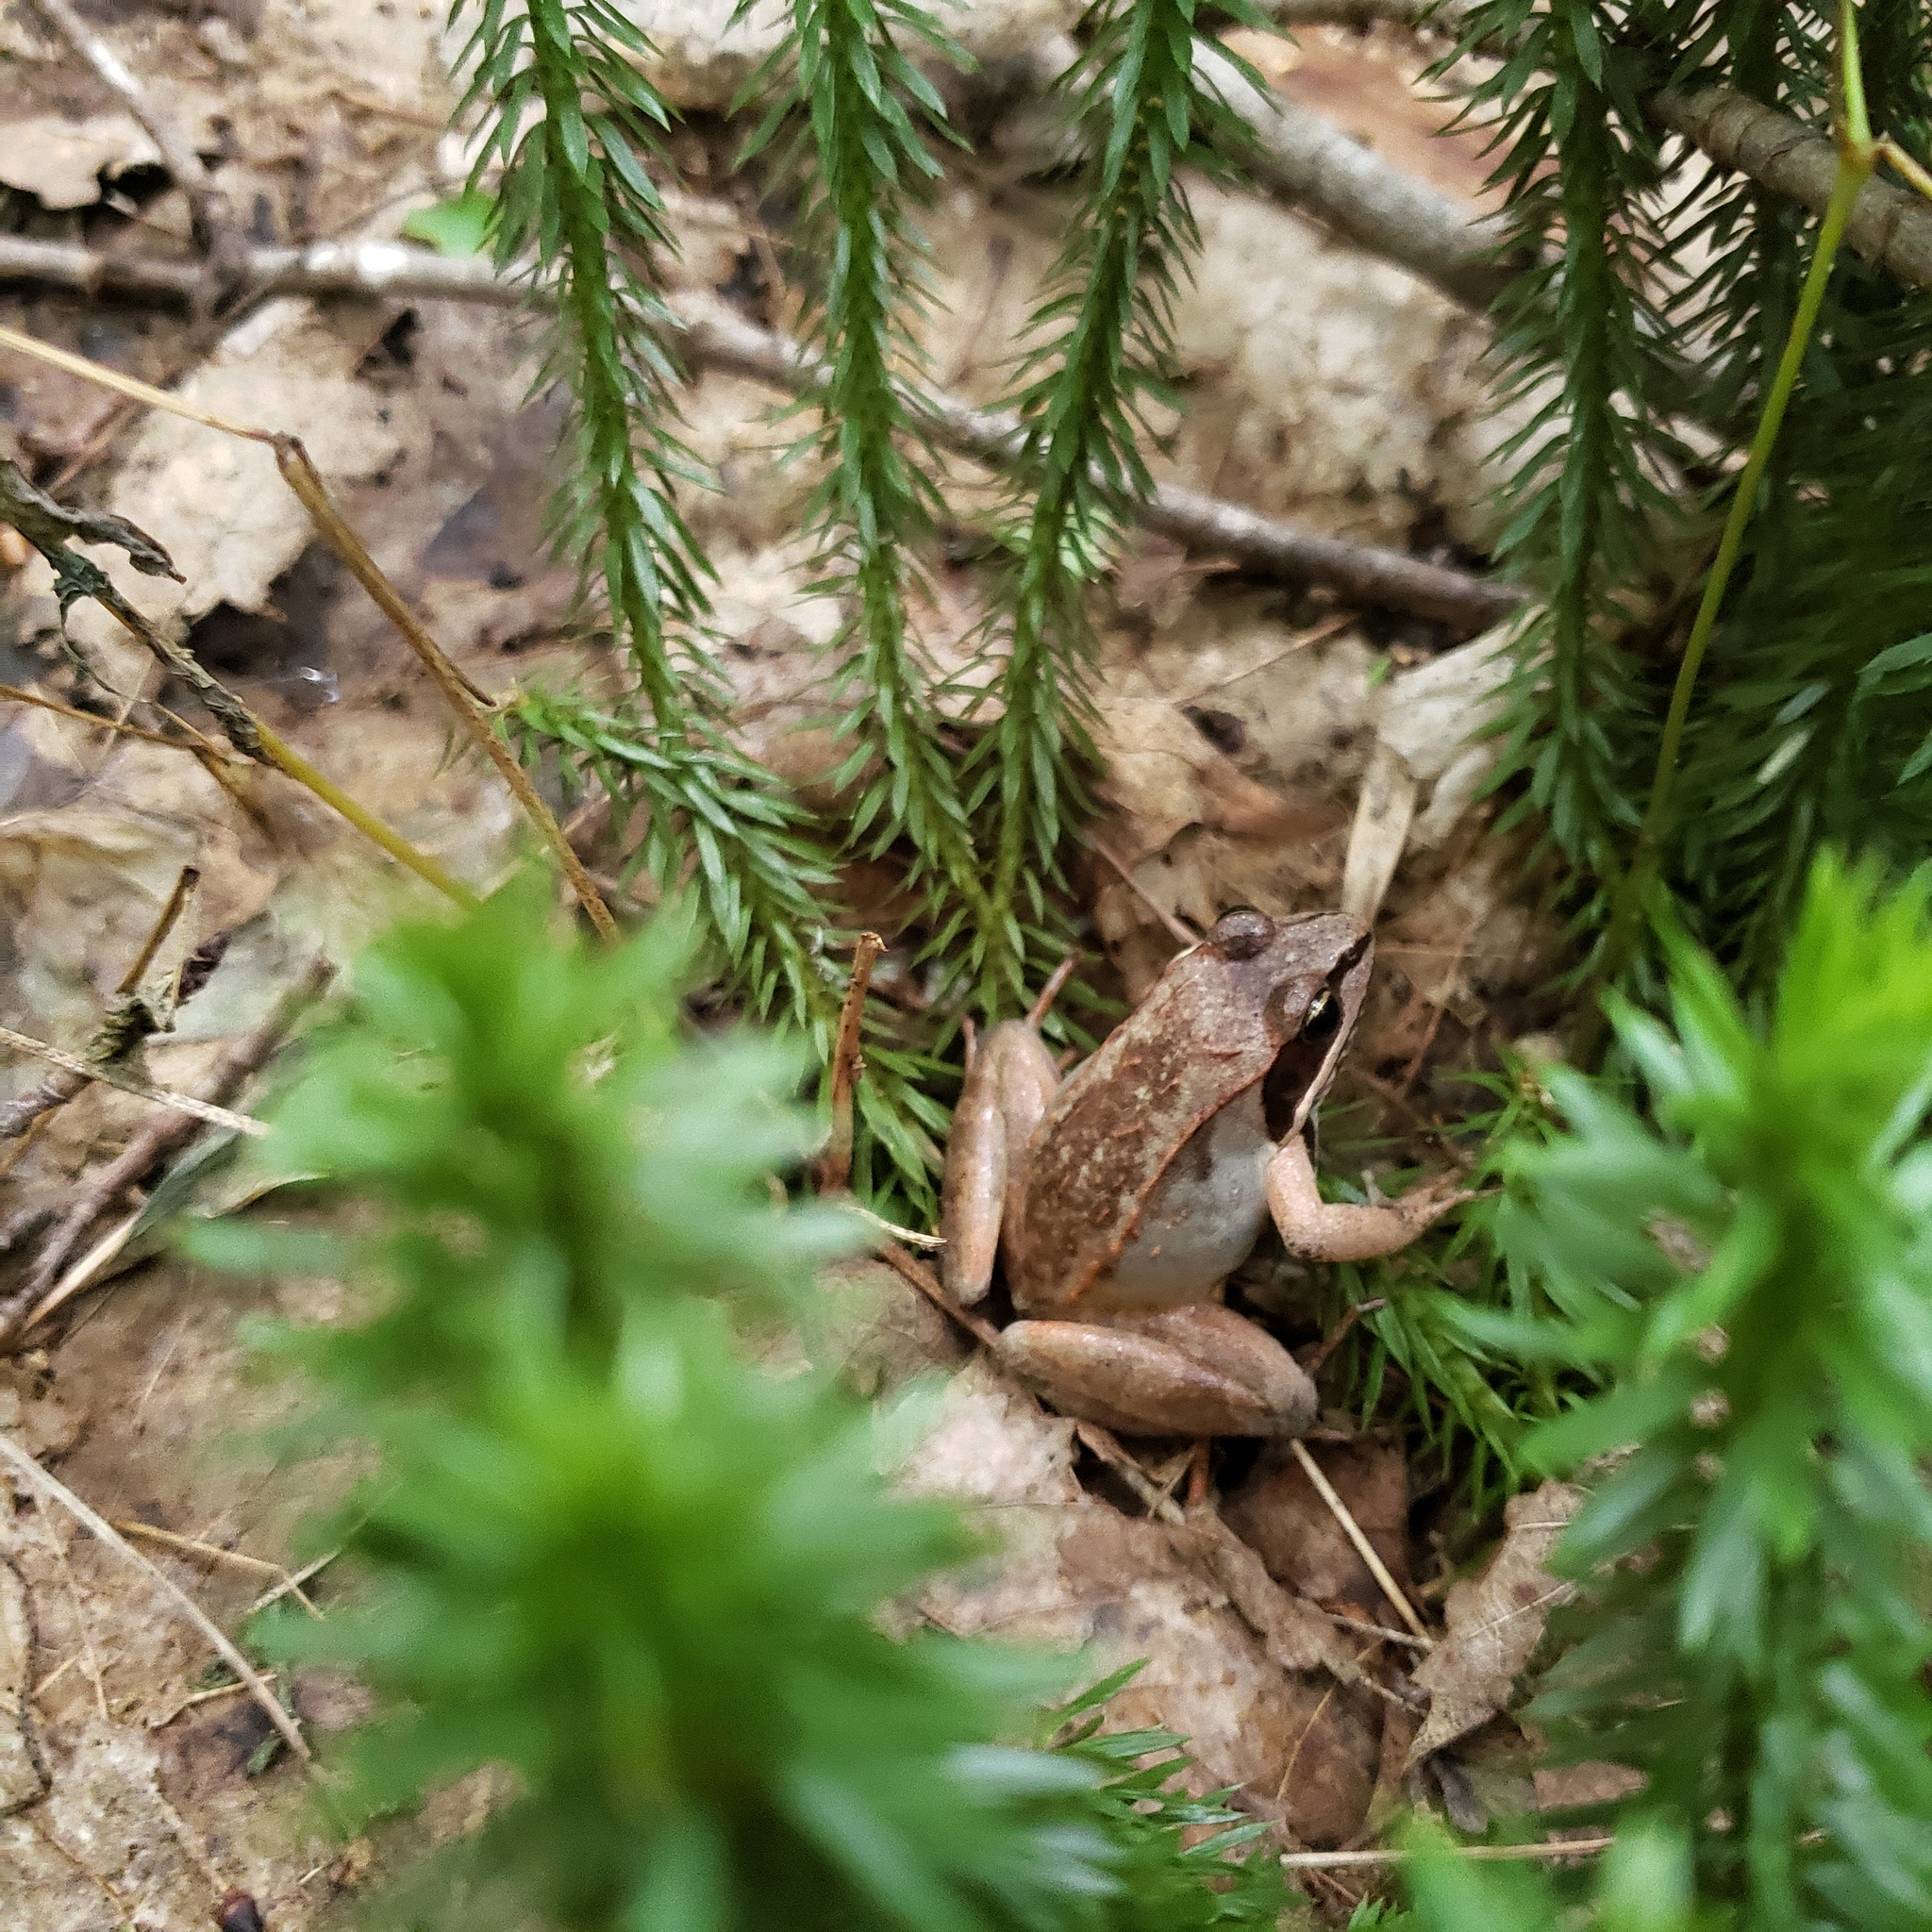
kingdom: Animalia
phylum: Chordata
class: Amphibia
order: Anura
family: Ranidae
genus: Lithobates
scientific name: Lithobates sylvaticus
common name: Wood frog
